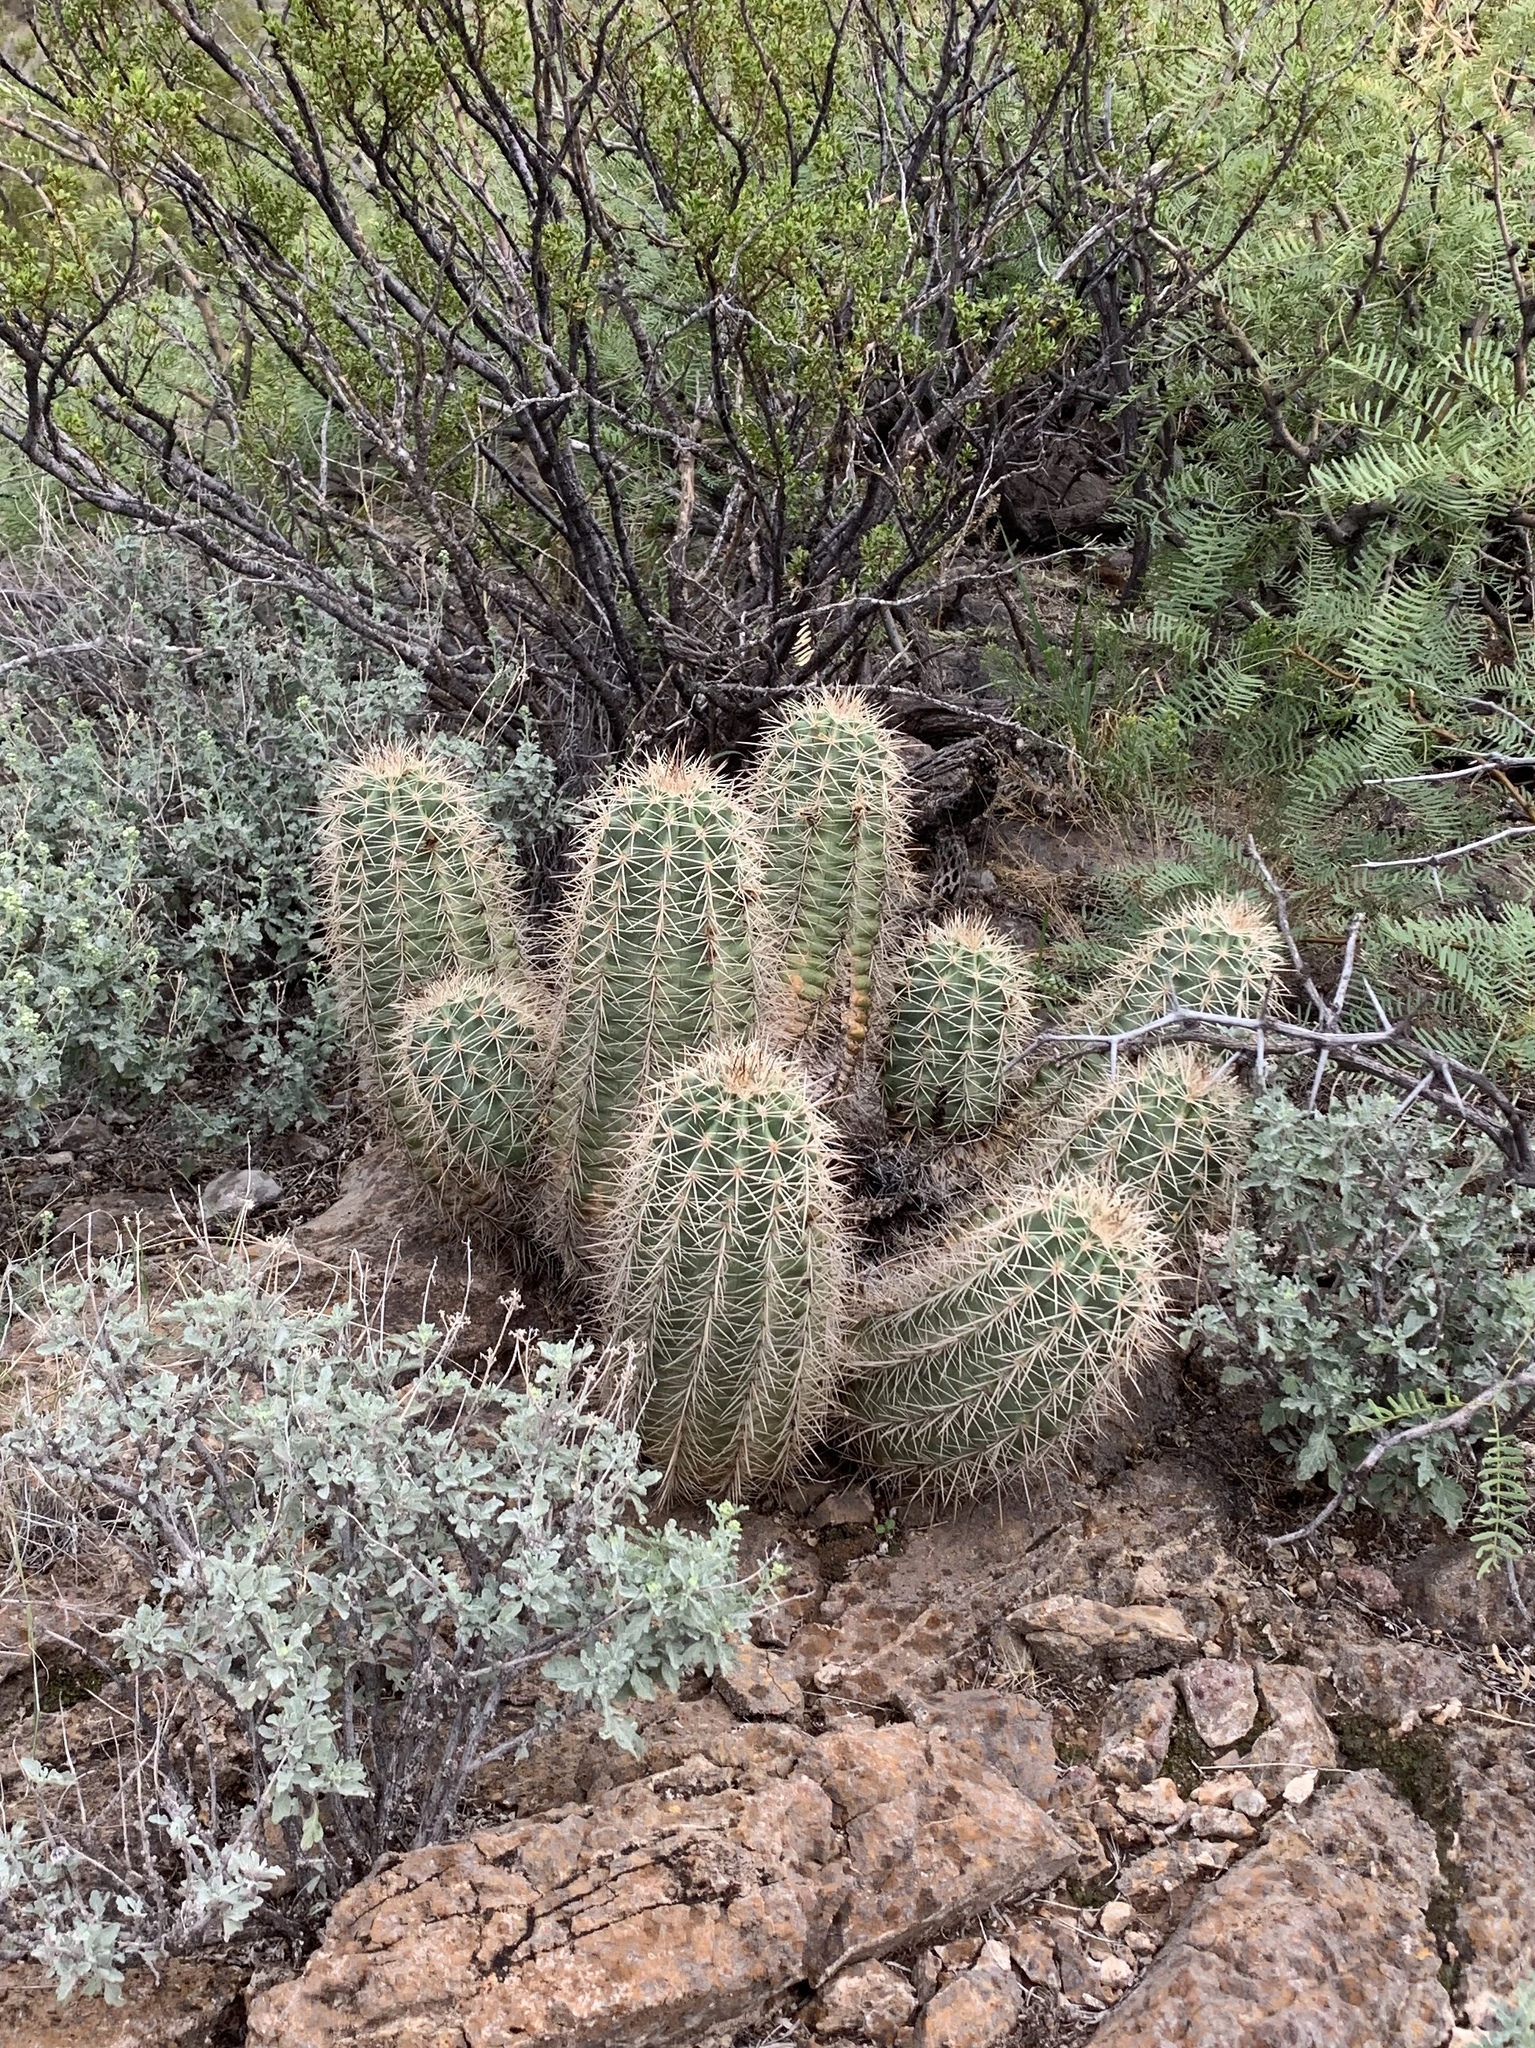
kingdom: Plantae
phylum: Tracheophyta
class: Magnoliopsida
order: Caryophyllales
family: Cactaceae
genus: Echinocereus
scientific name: Echinocereus coccineus
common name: Scarlet hedgehog cactus
